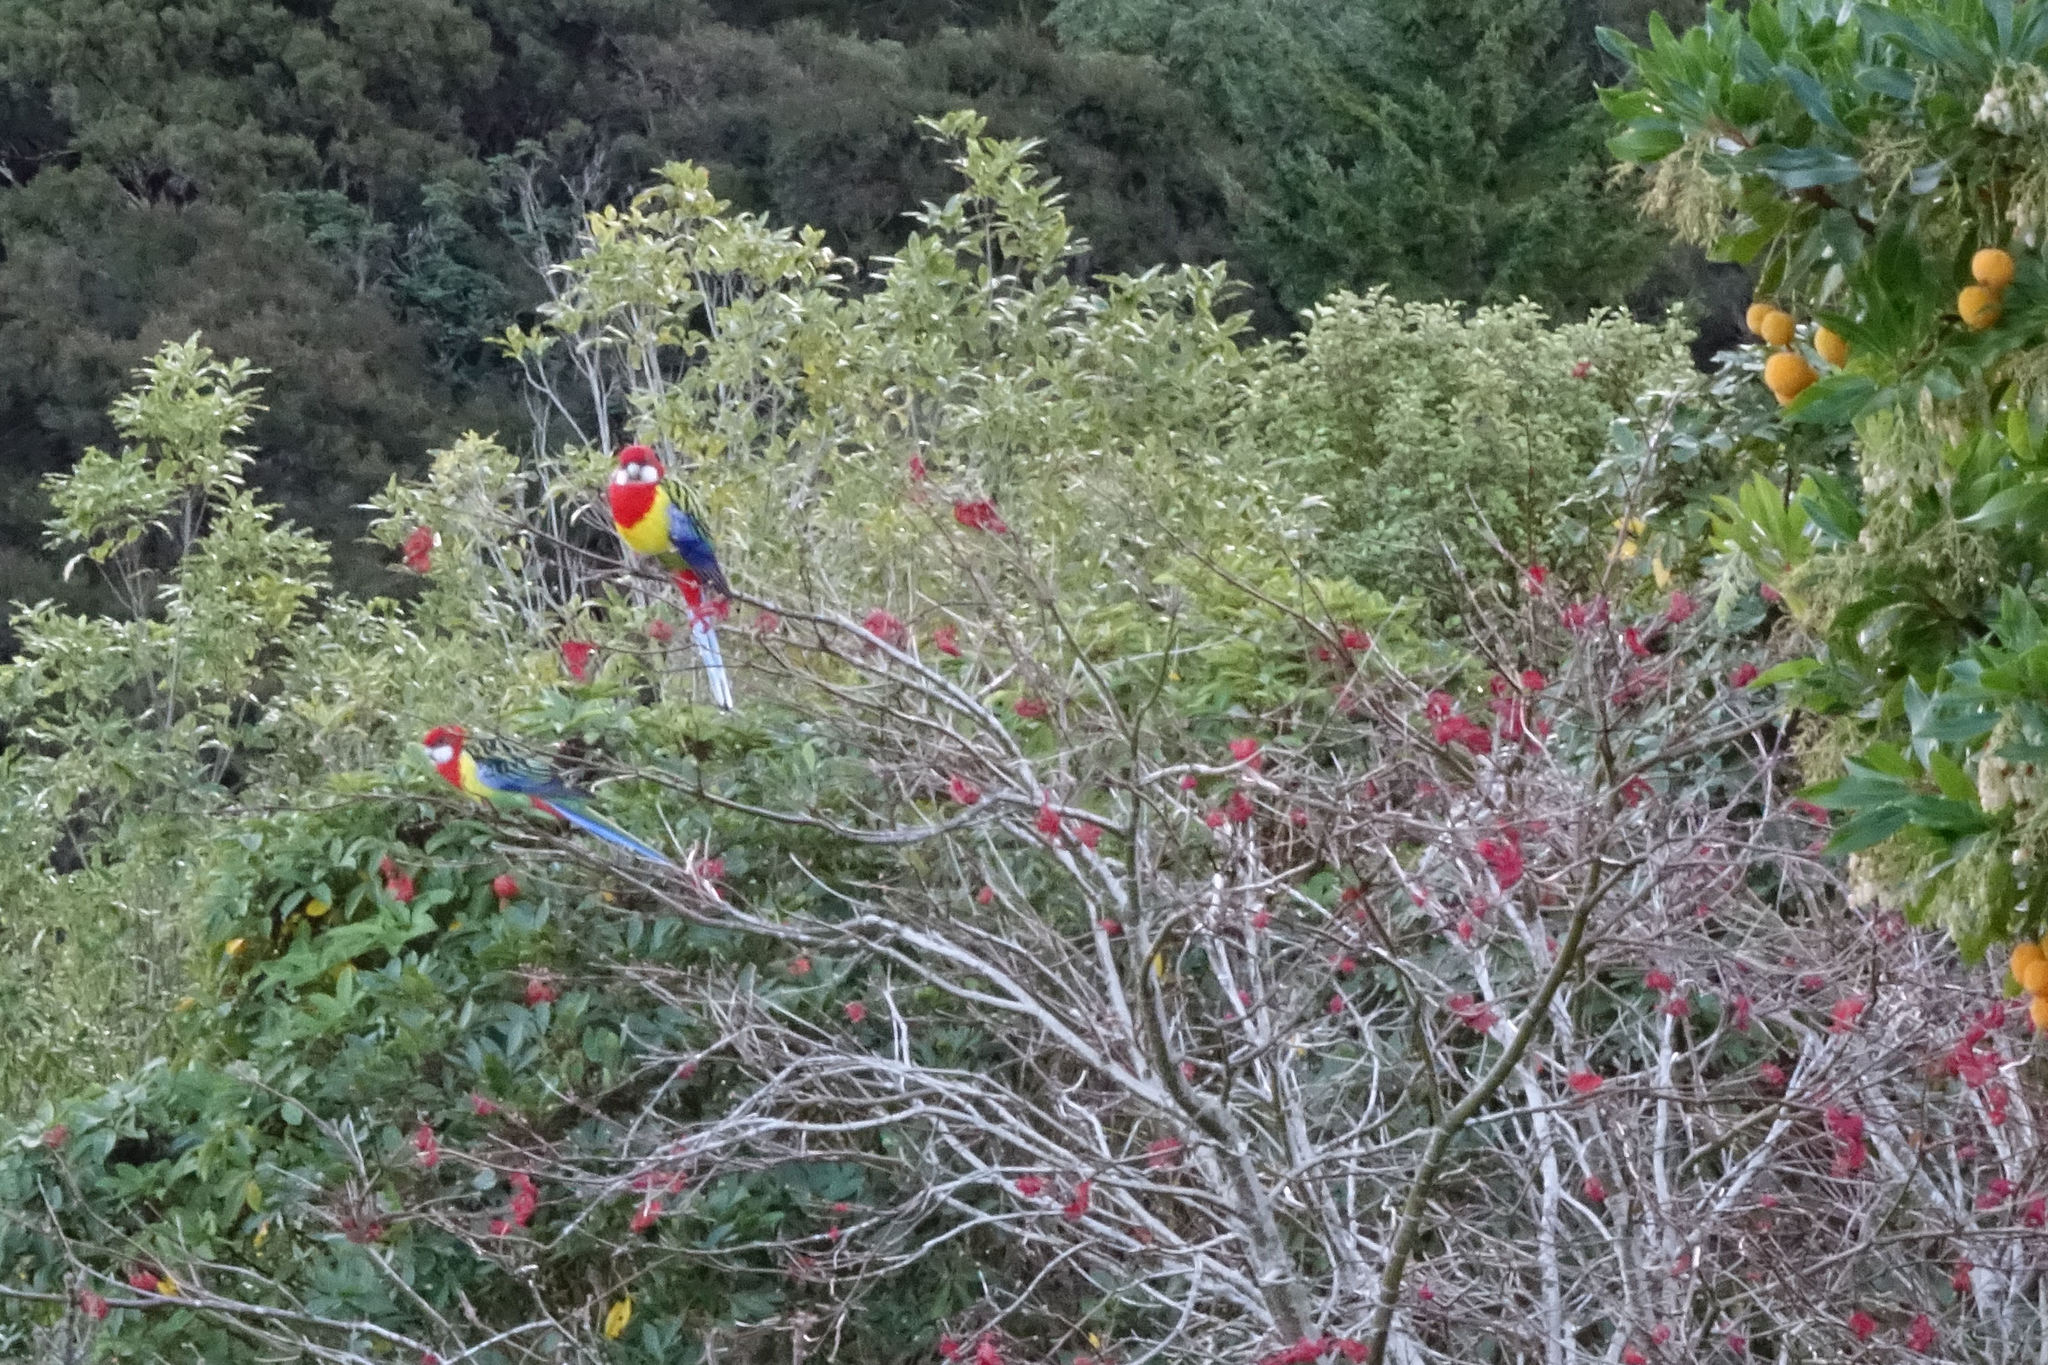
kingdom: Animalia
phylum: Chordata
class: Aves
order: Psittaciformes
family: Psittacidae
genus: Platycercus
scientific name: Platycercus eximius
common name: Eastern rosella
